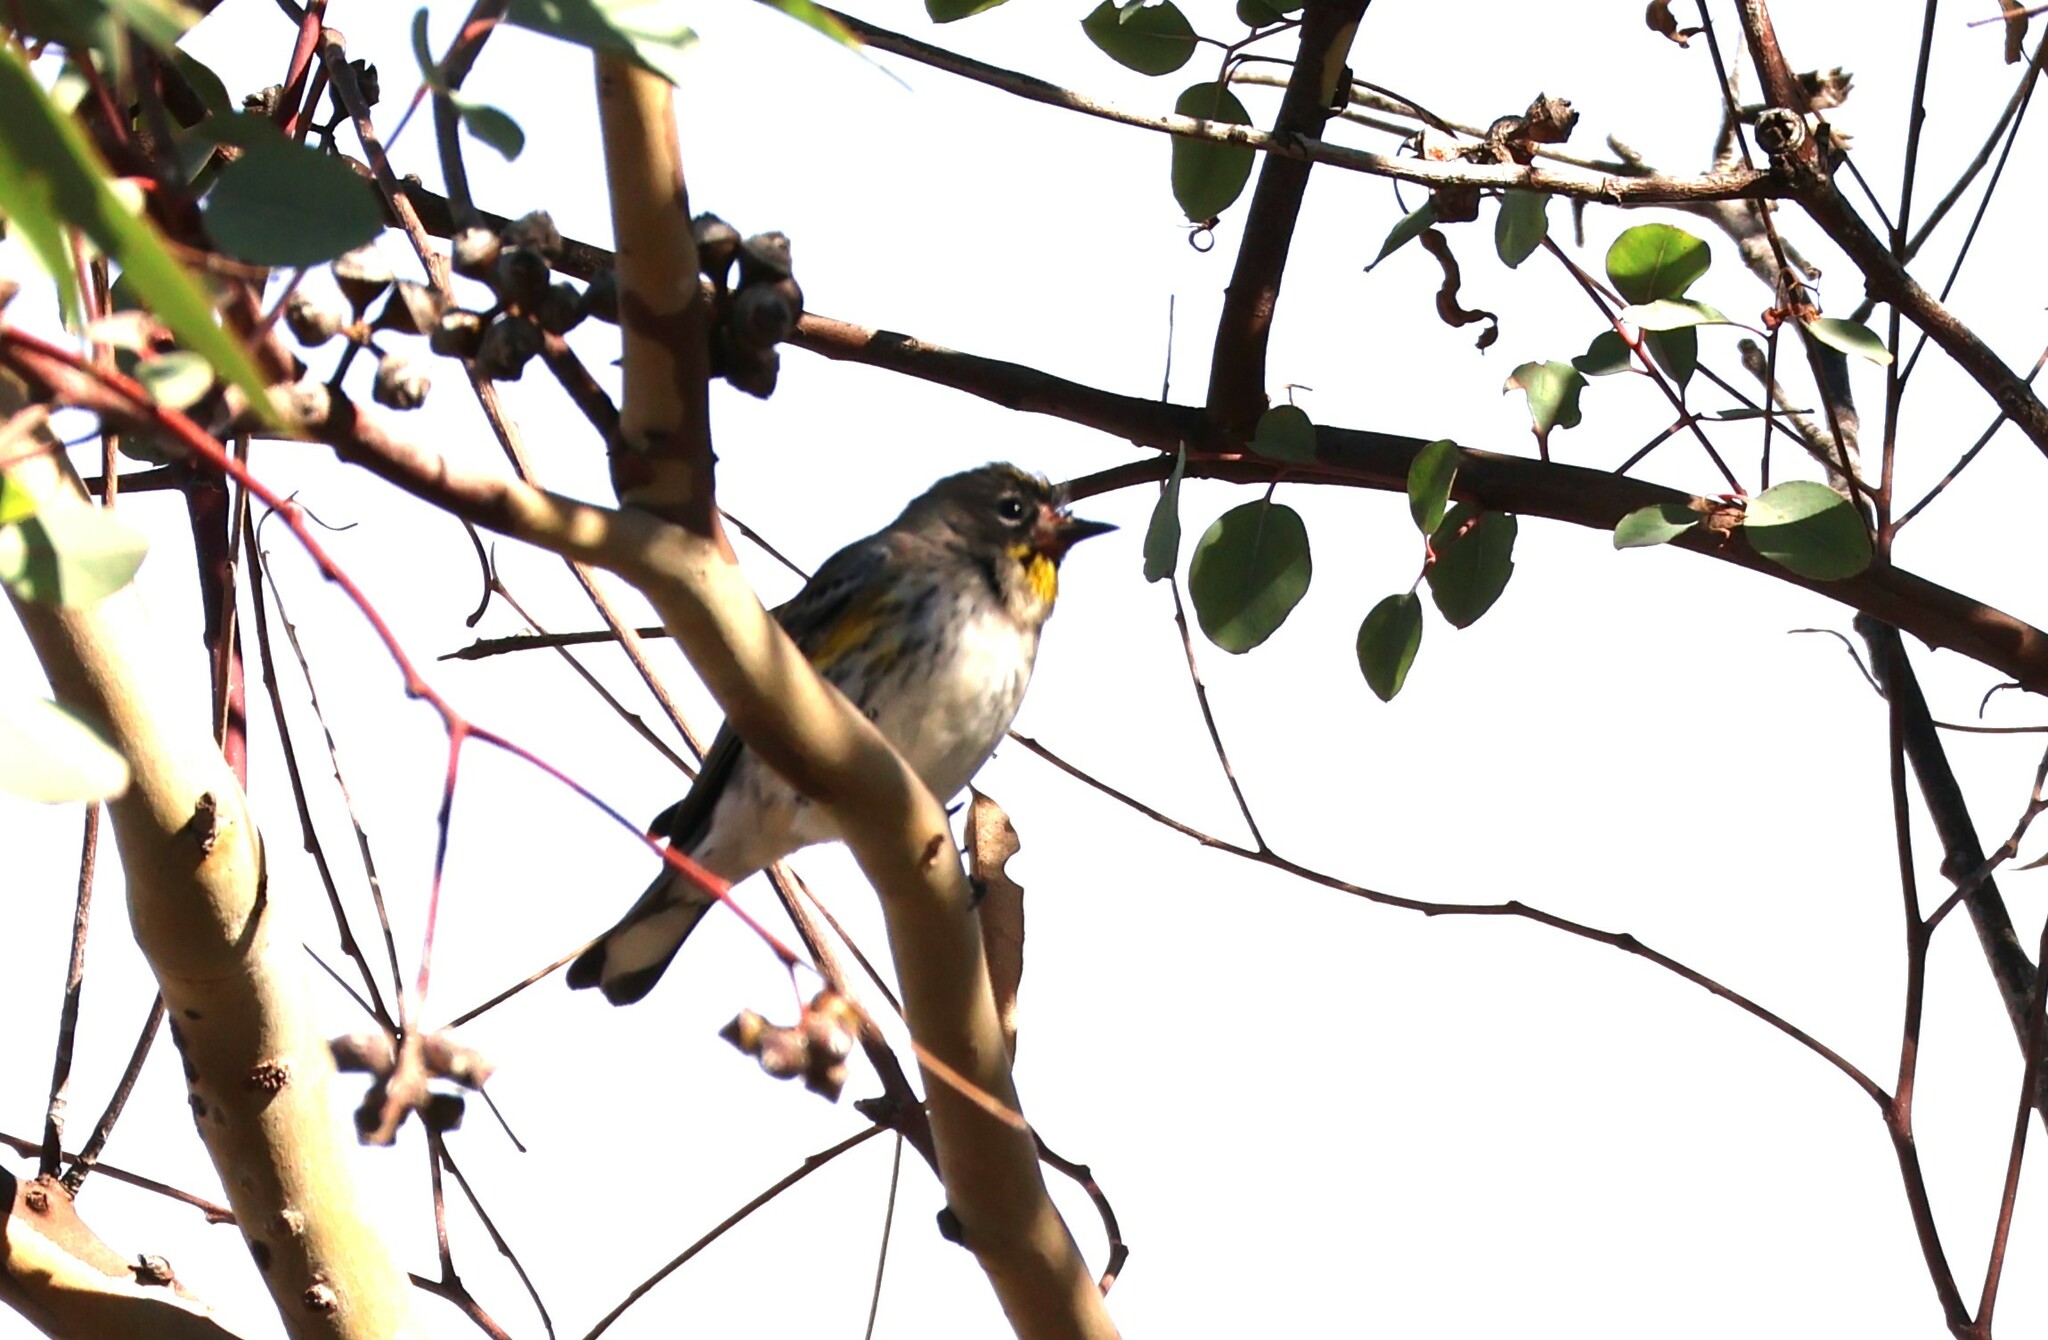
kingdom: Animalia
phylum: Chordata
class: Aves
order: Passeriformes
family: Parulidae
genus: Setophaga
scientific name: Setophaga auduboni
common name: Audubon's warbler
